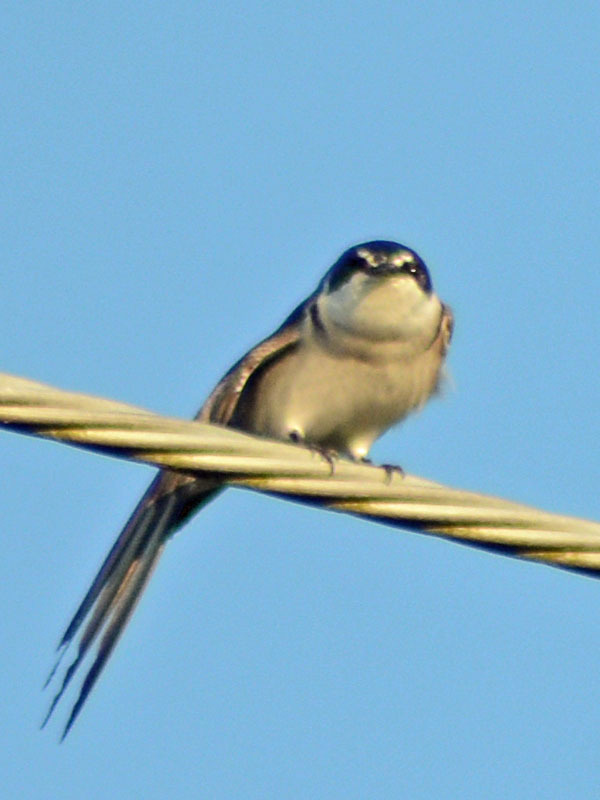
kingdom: Animalia
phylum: Chordata
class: Aves
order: Passeriformes
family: Hirundinidae
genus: Tachycineta
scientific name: Tachycineta albilinea
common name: Mangrove swallow
